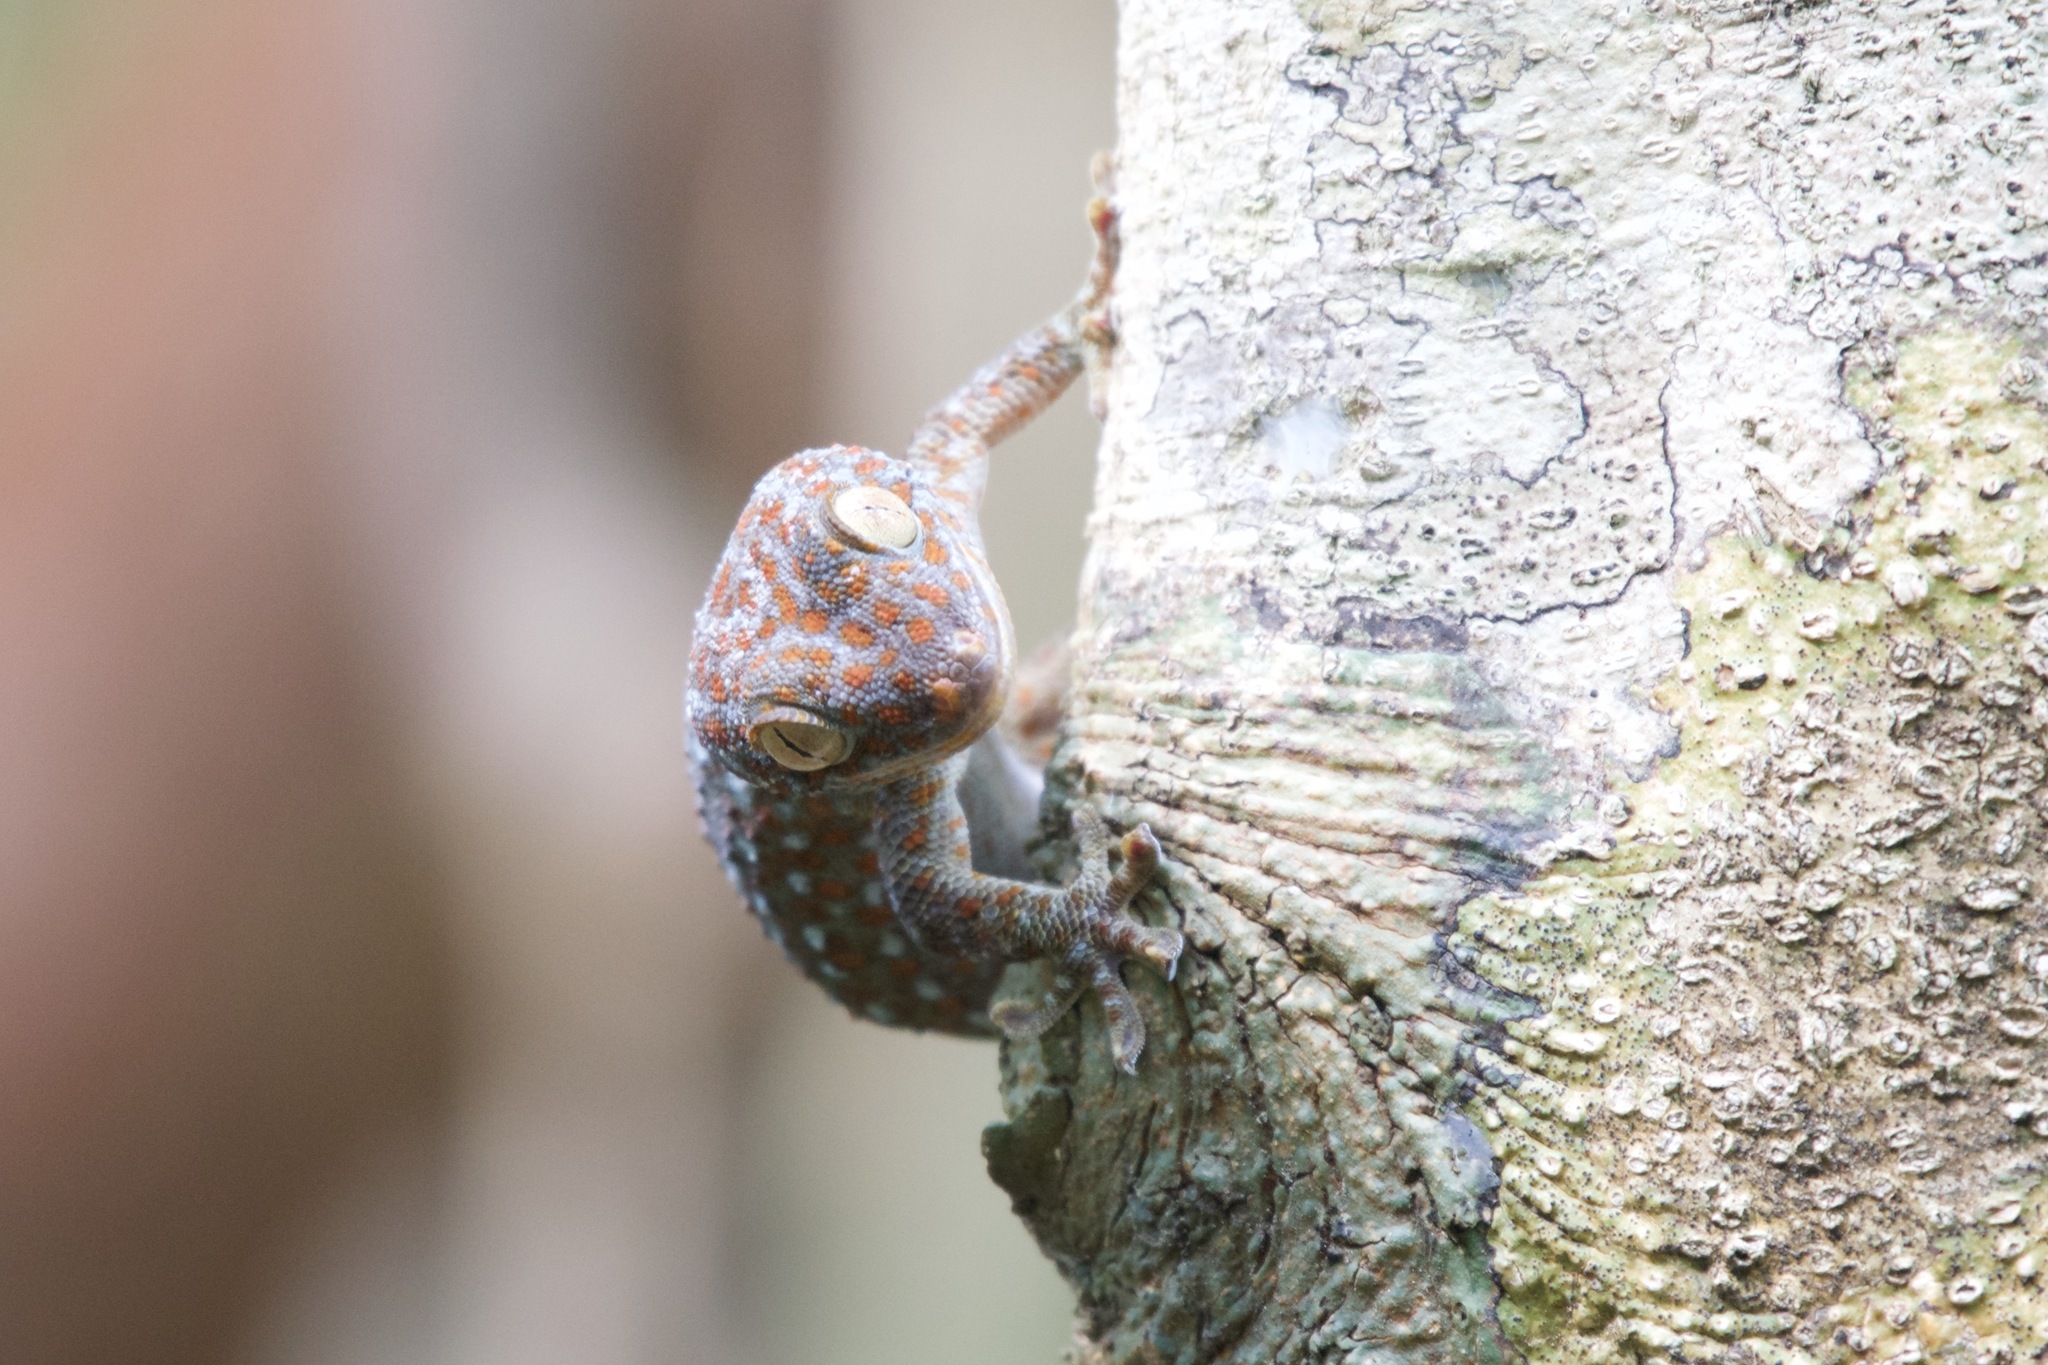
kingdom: Animalia
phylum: Chordata
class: Squamata
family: Gekkonidae
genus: Gekko
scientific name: Gekko gecko
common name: Tokay gecko
